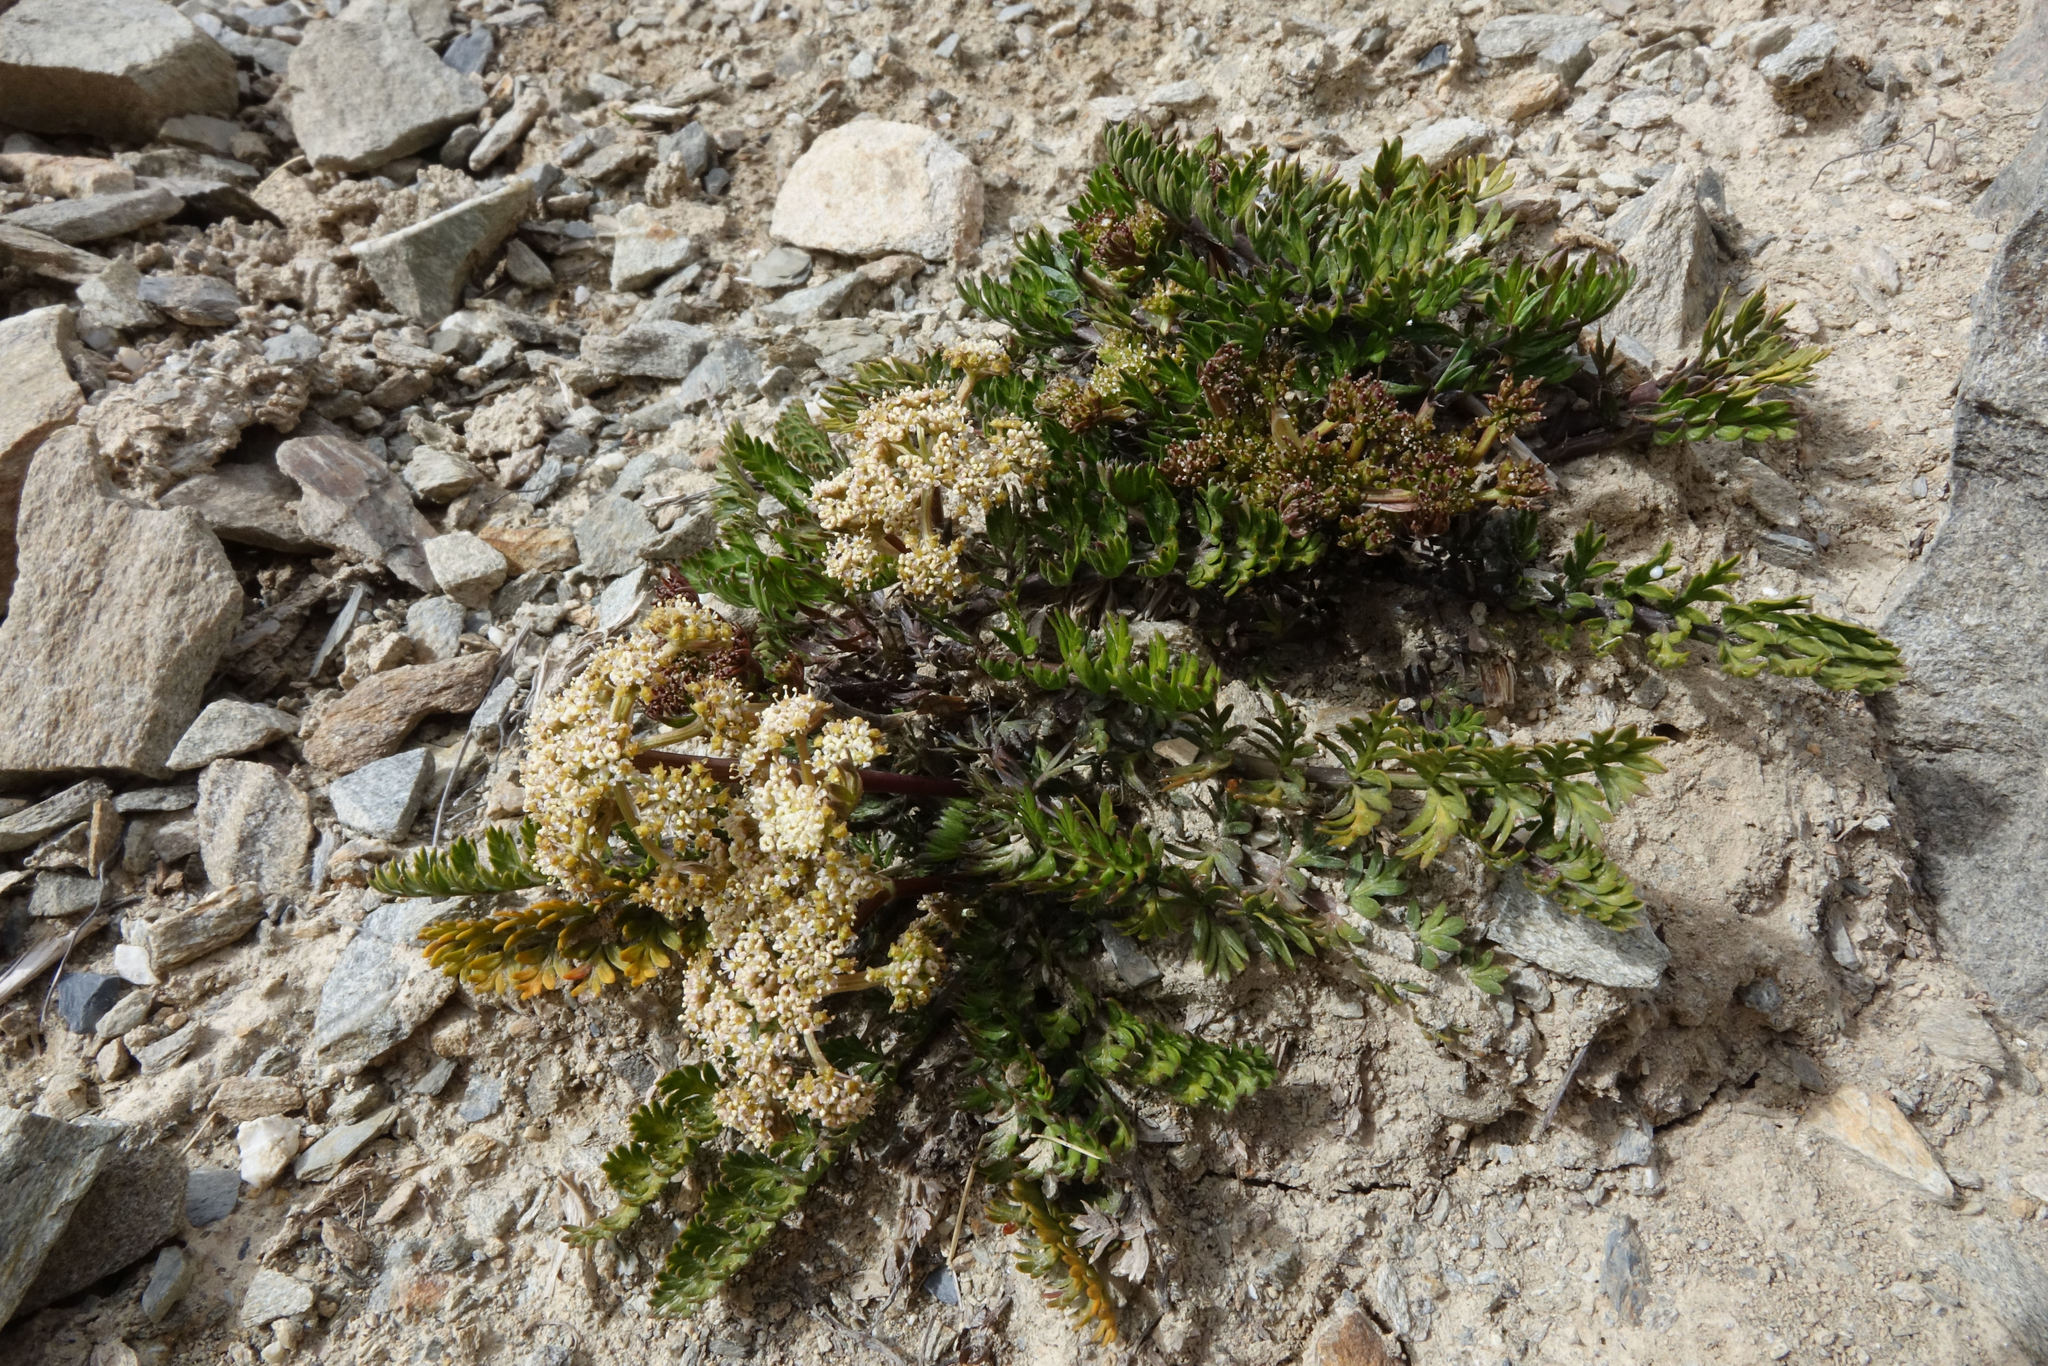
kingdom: Plantae
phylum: Tracheophyta
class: Magnoliopsida
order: Apiales
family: Apiaceae
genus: Anisotome
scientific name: Anisotome aromatica
